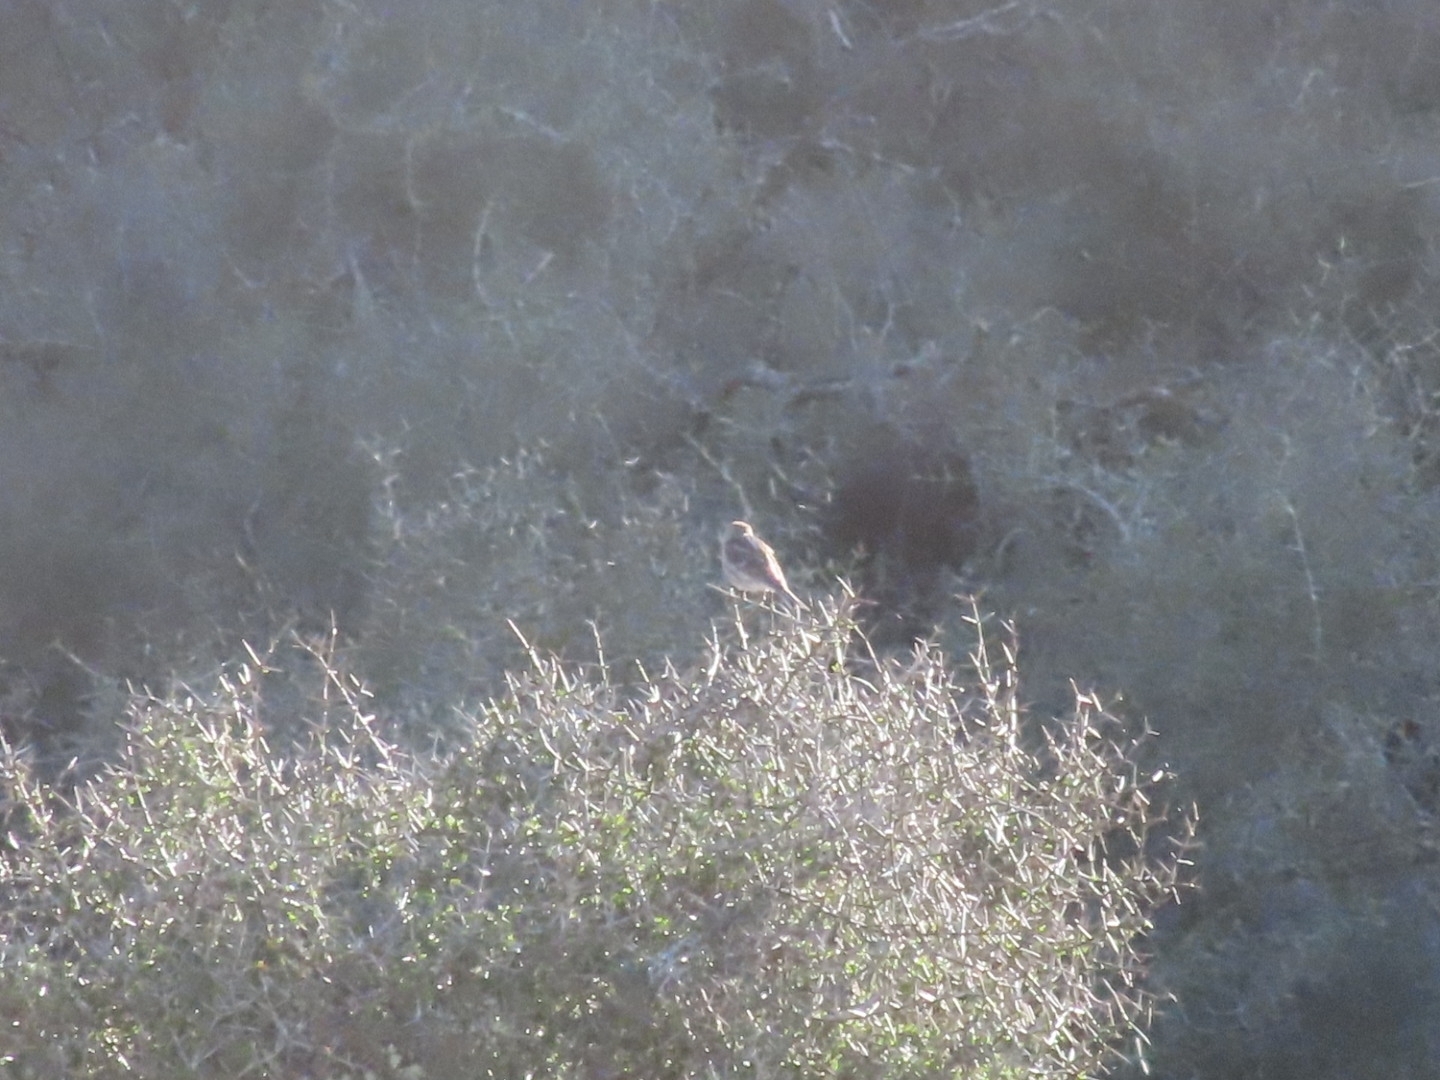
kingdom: Animalia
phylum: Chordata
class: Aves
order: Passeriformes
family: Fringillidae
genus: Acanthis
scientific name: Acanthis flammea
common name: Common redpoll
